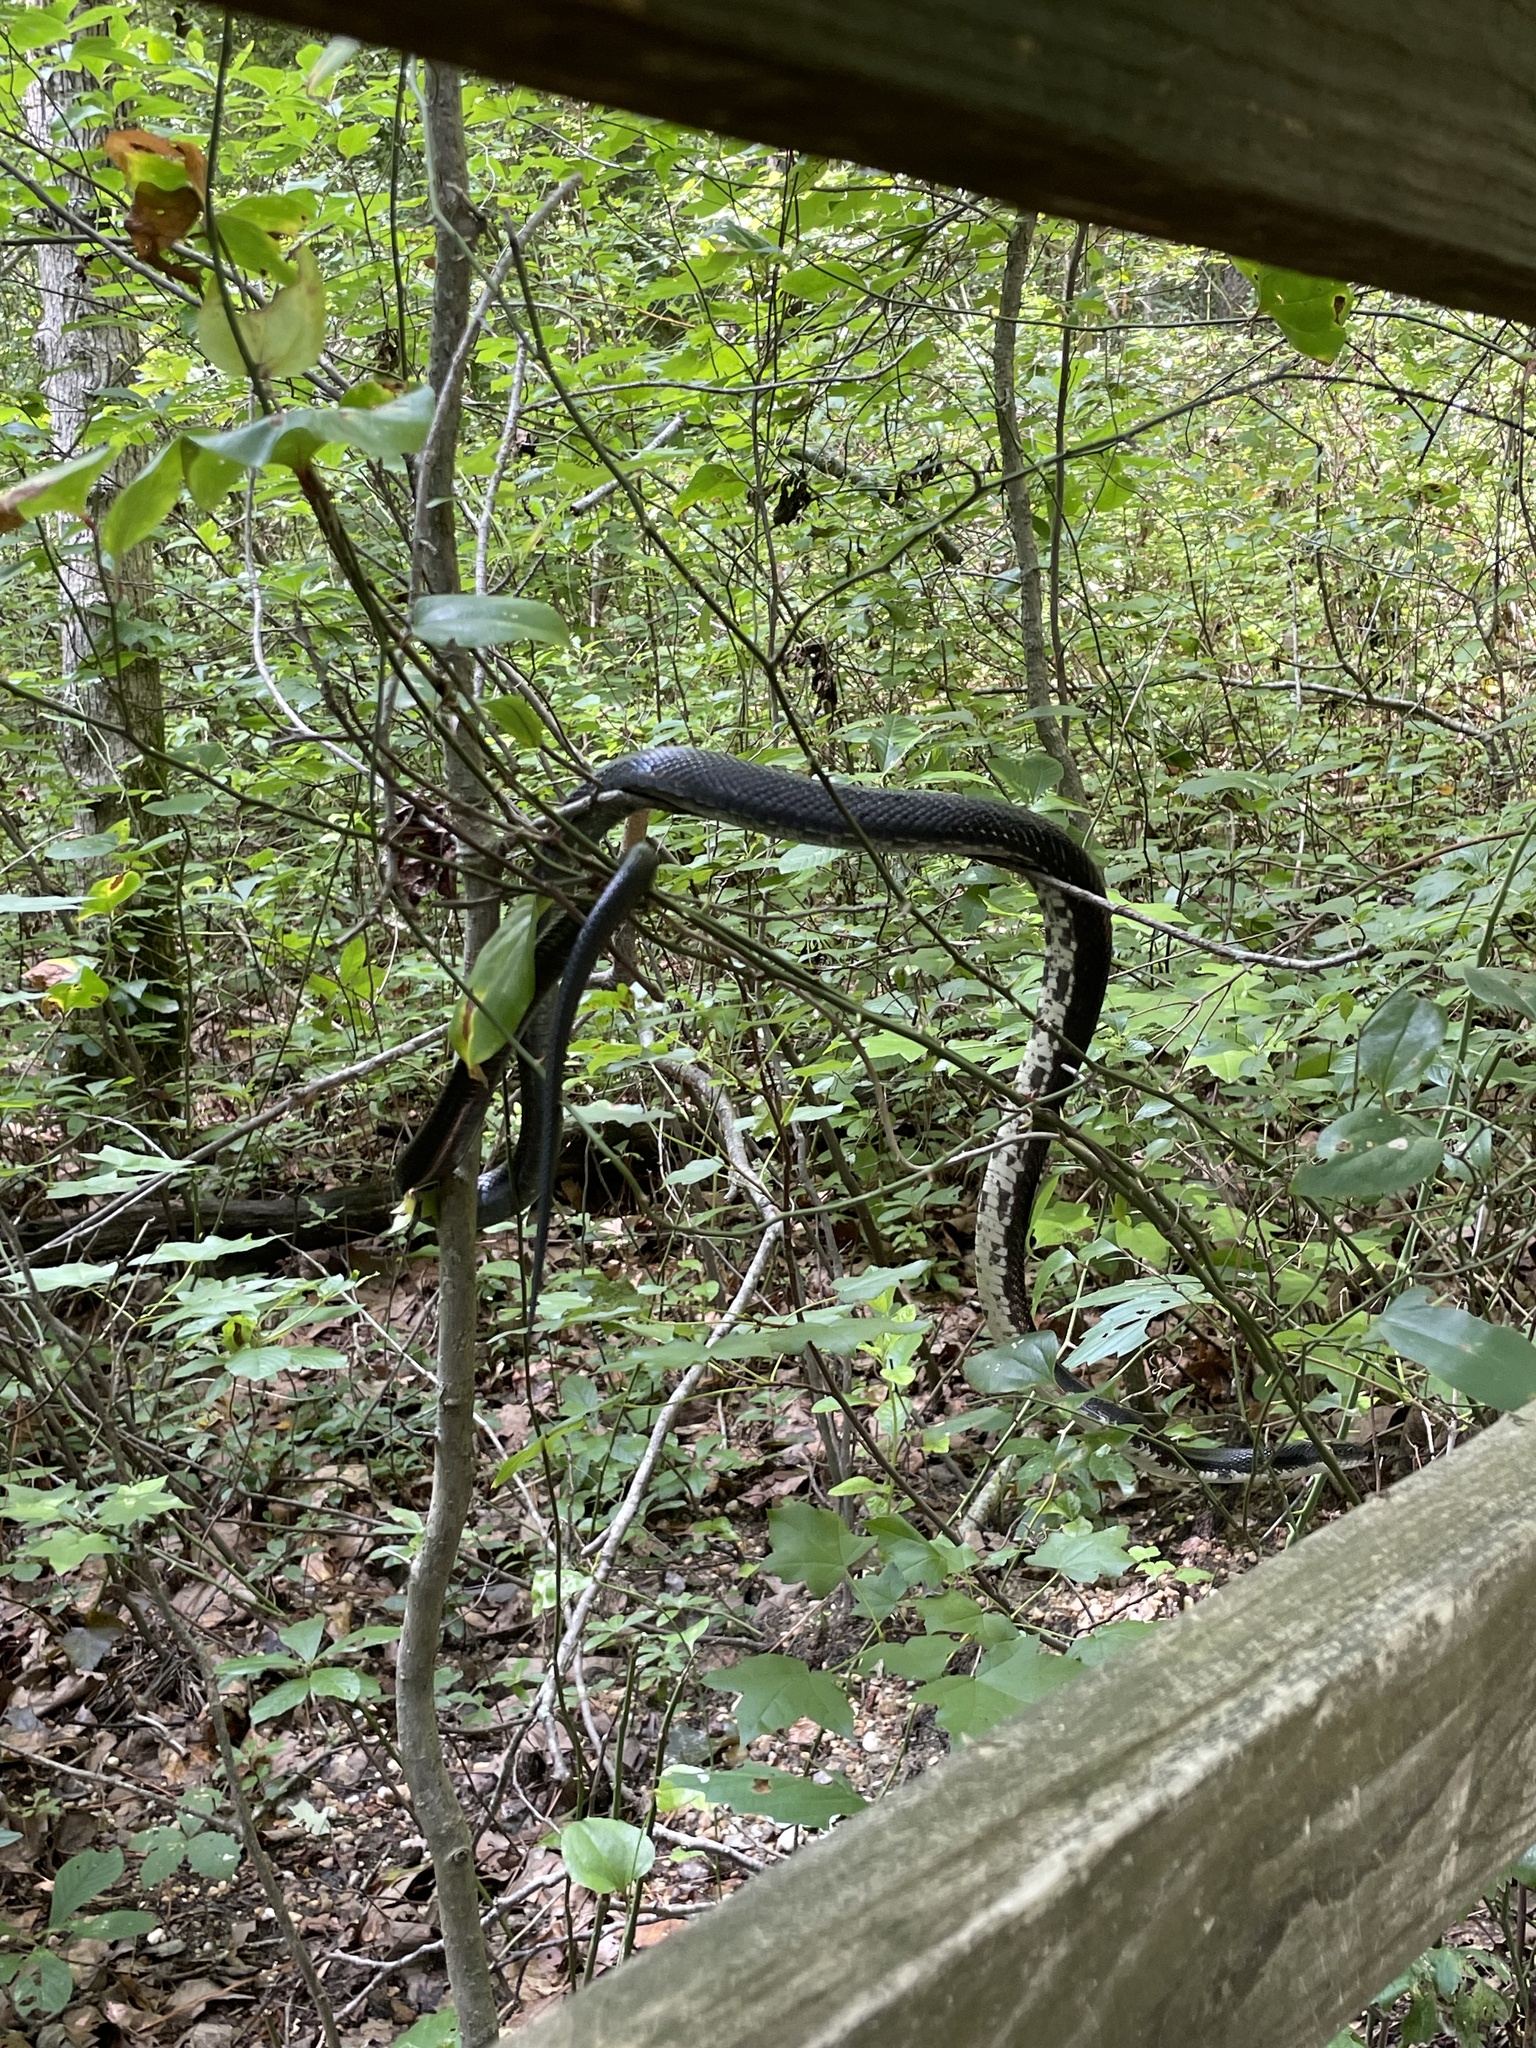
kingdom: Animalia
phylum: Chordata
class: Squamata
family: Colubridae
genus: Pantherophis
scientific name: Pantherophis
